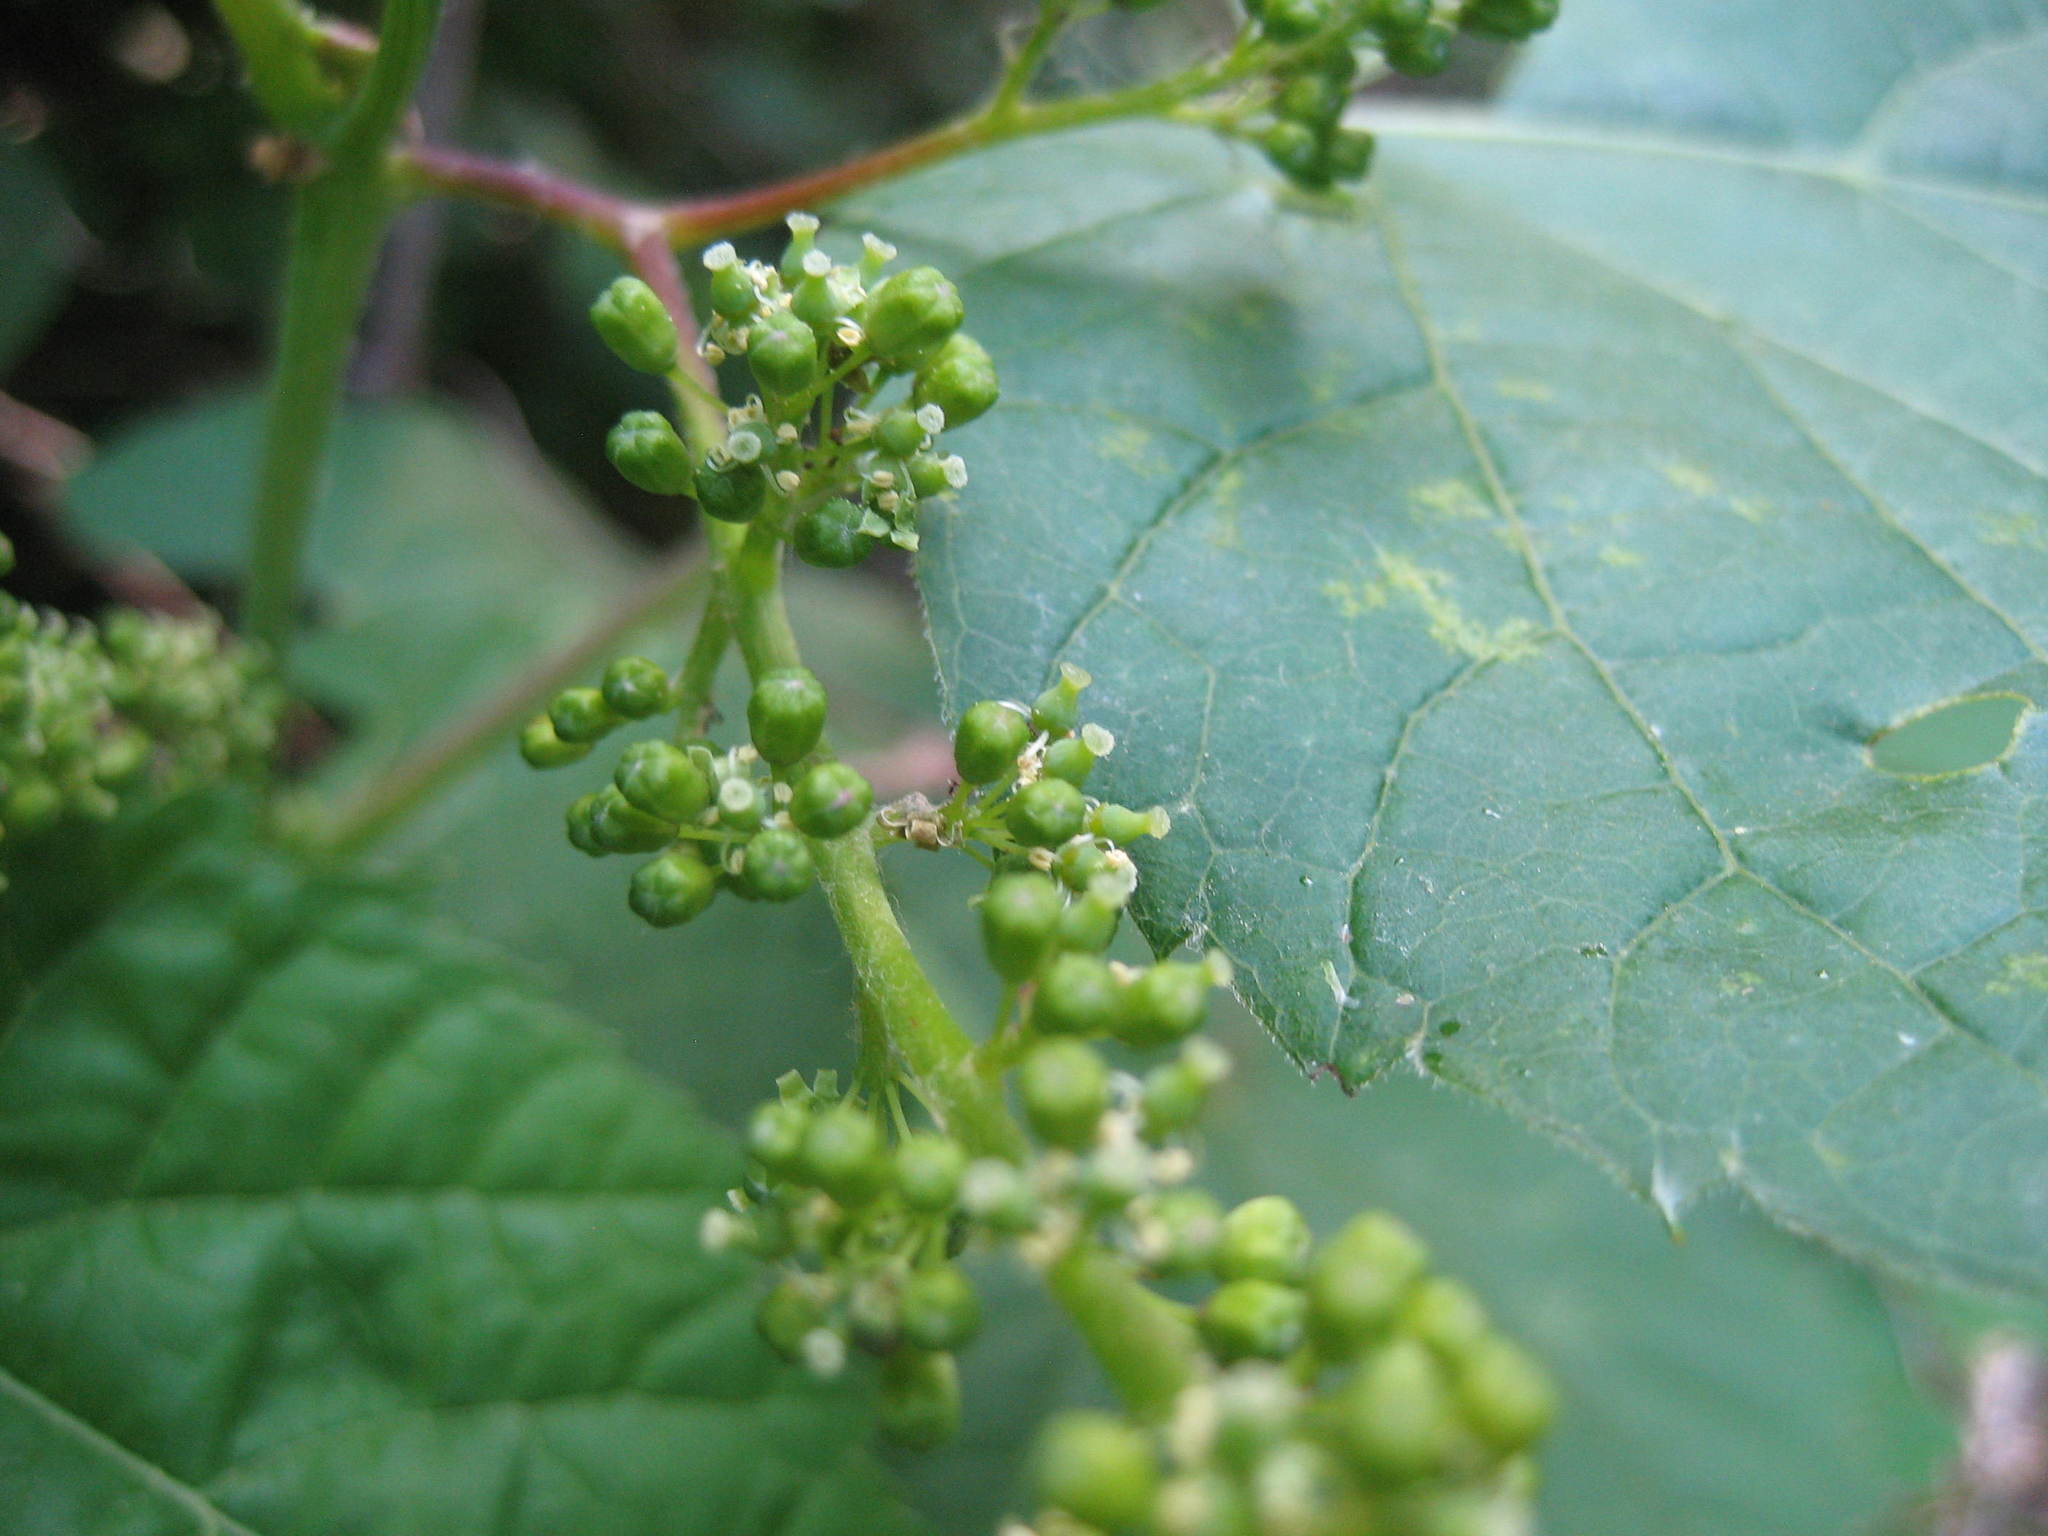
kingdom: Plantae
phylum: Tracheophyta
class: Magnoliopsida
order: Vitales
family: Vitaceae
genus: Vitis
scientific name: Vitis riparia
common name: Frost grape
